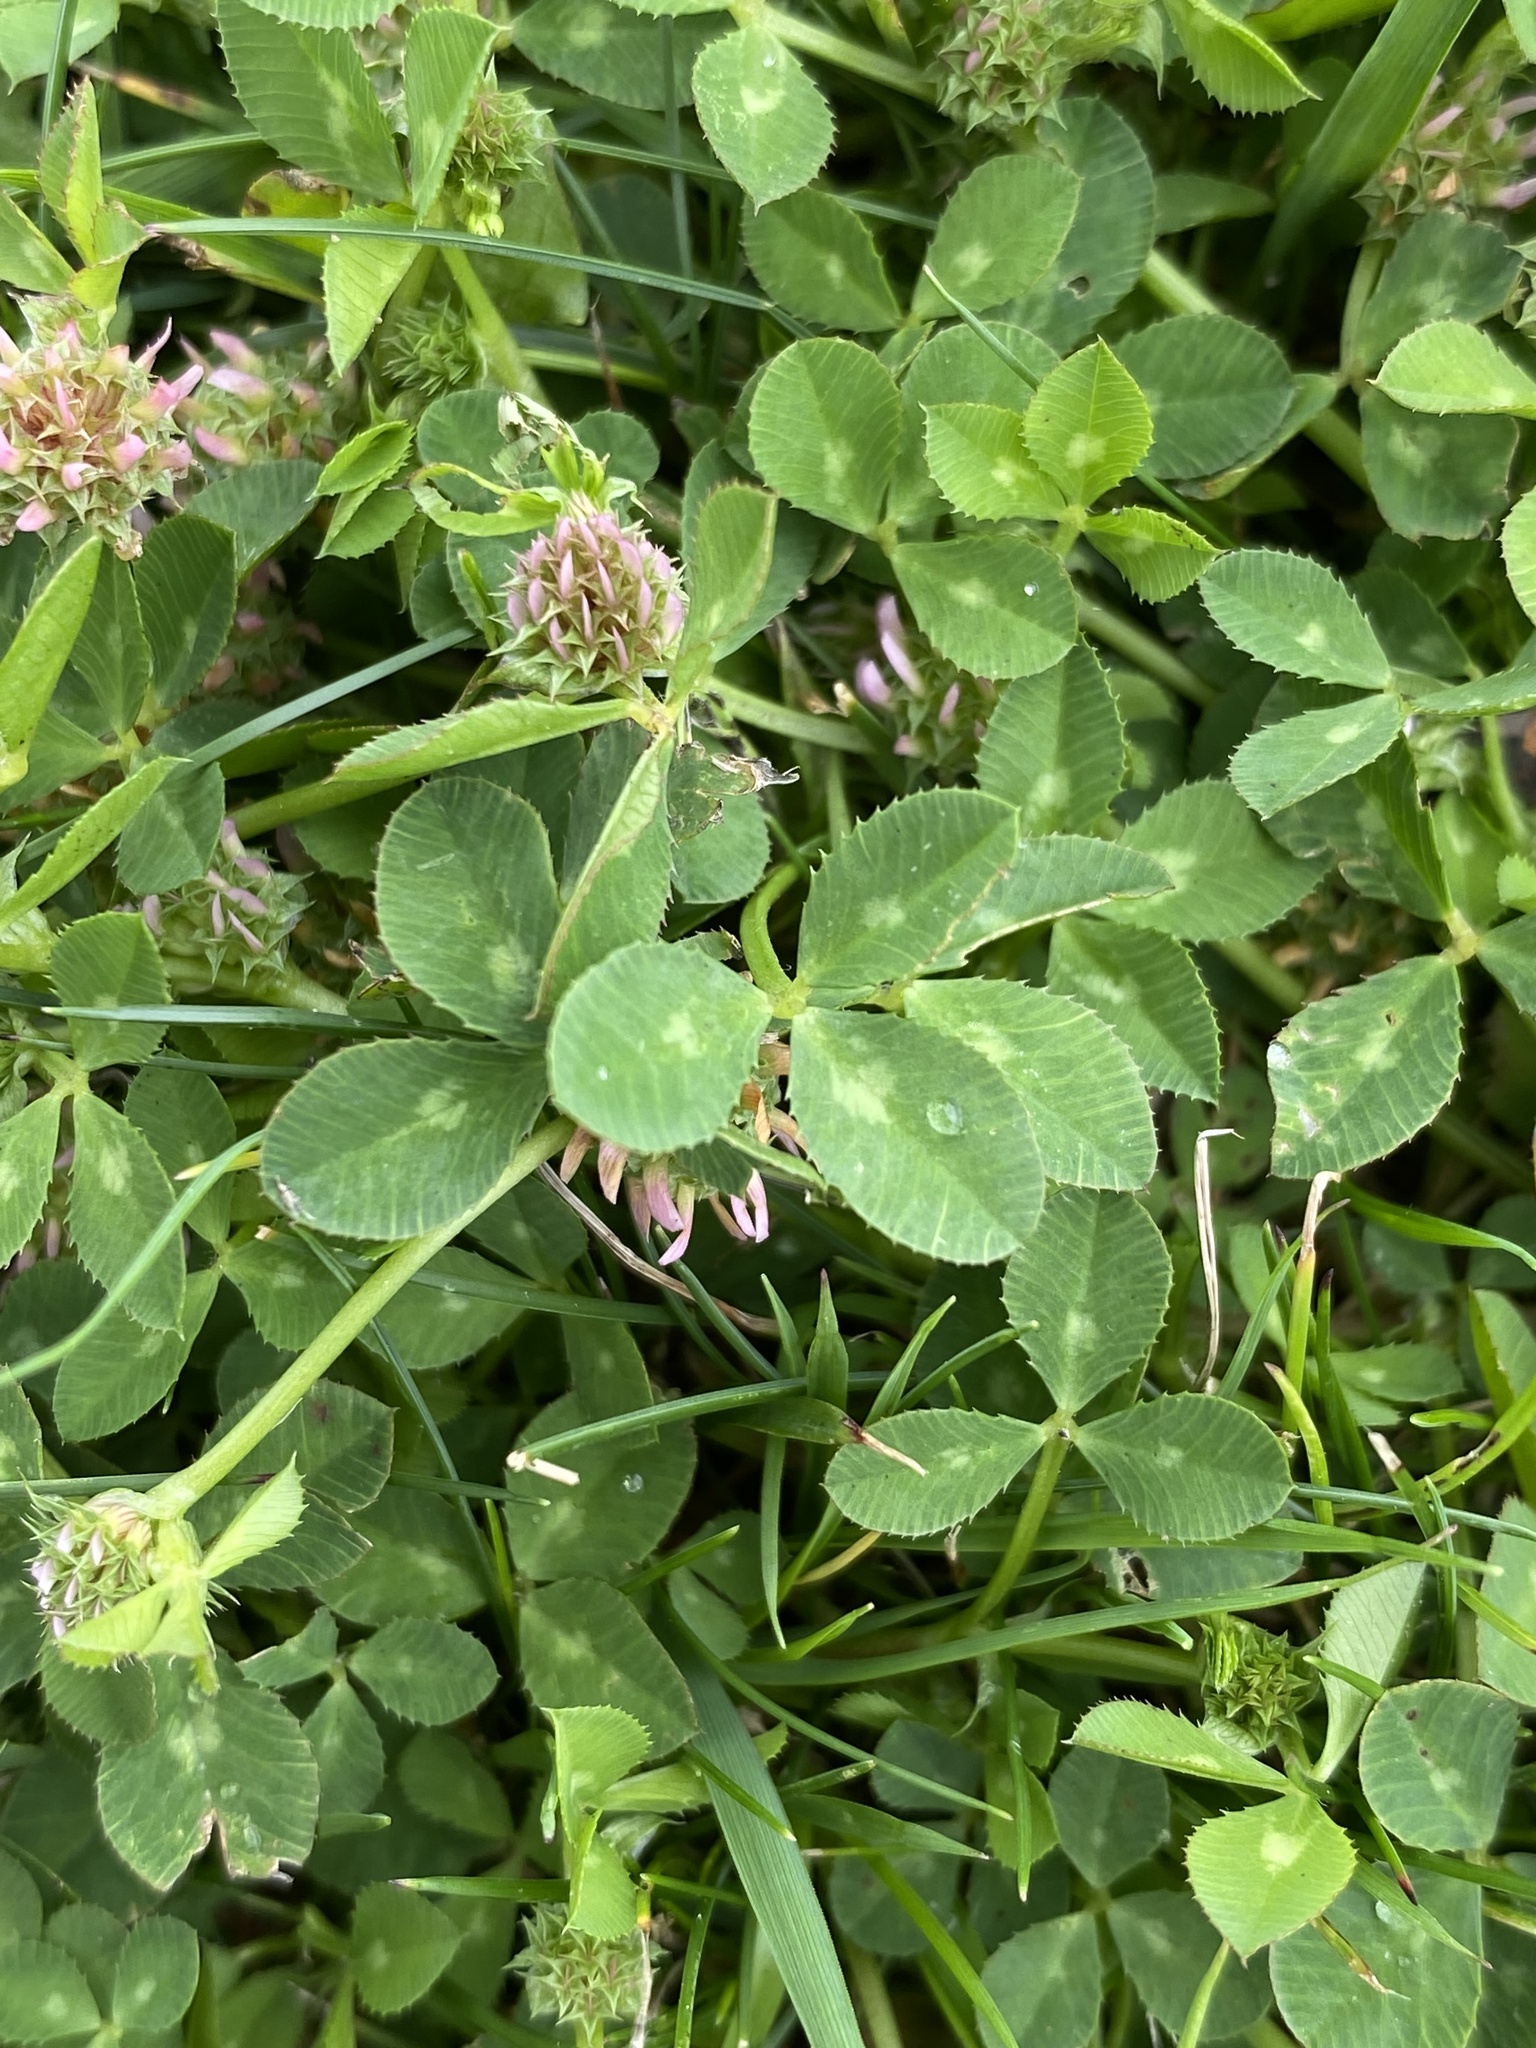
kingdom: Plantae
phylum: Tracheophyta
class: Magnoliopsida
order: Fabales
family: Fabaceae
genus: Trifolium
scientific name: Trifolium glomeratum
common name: Clustered clover
